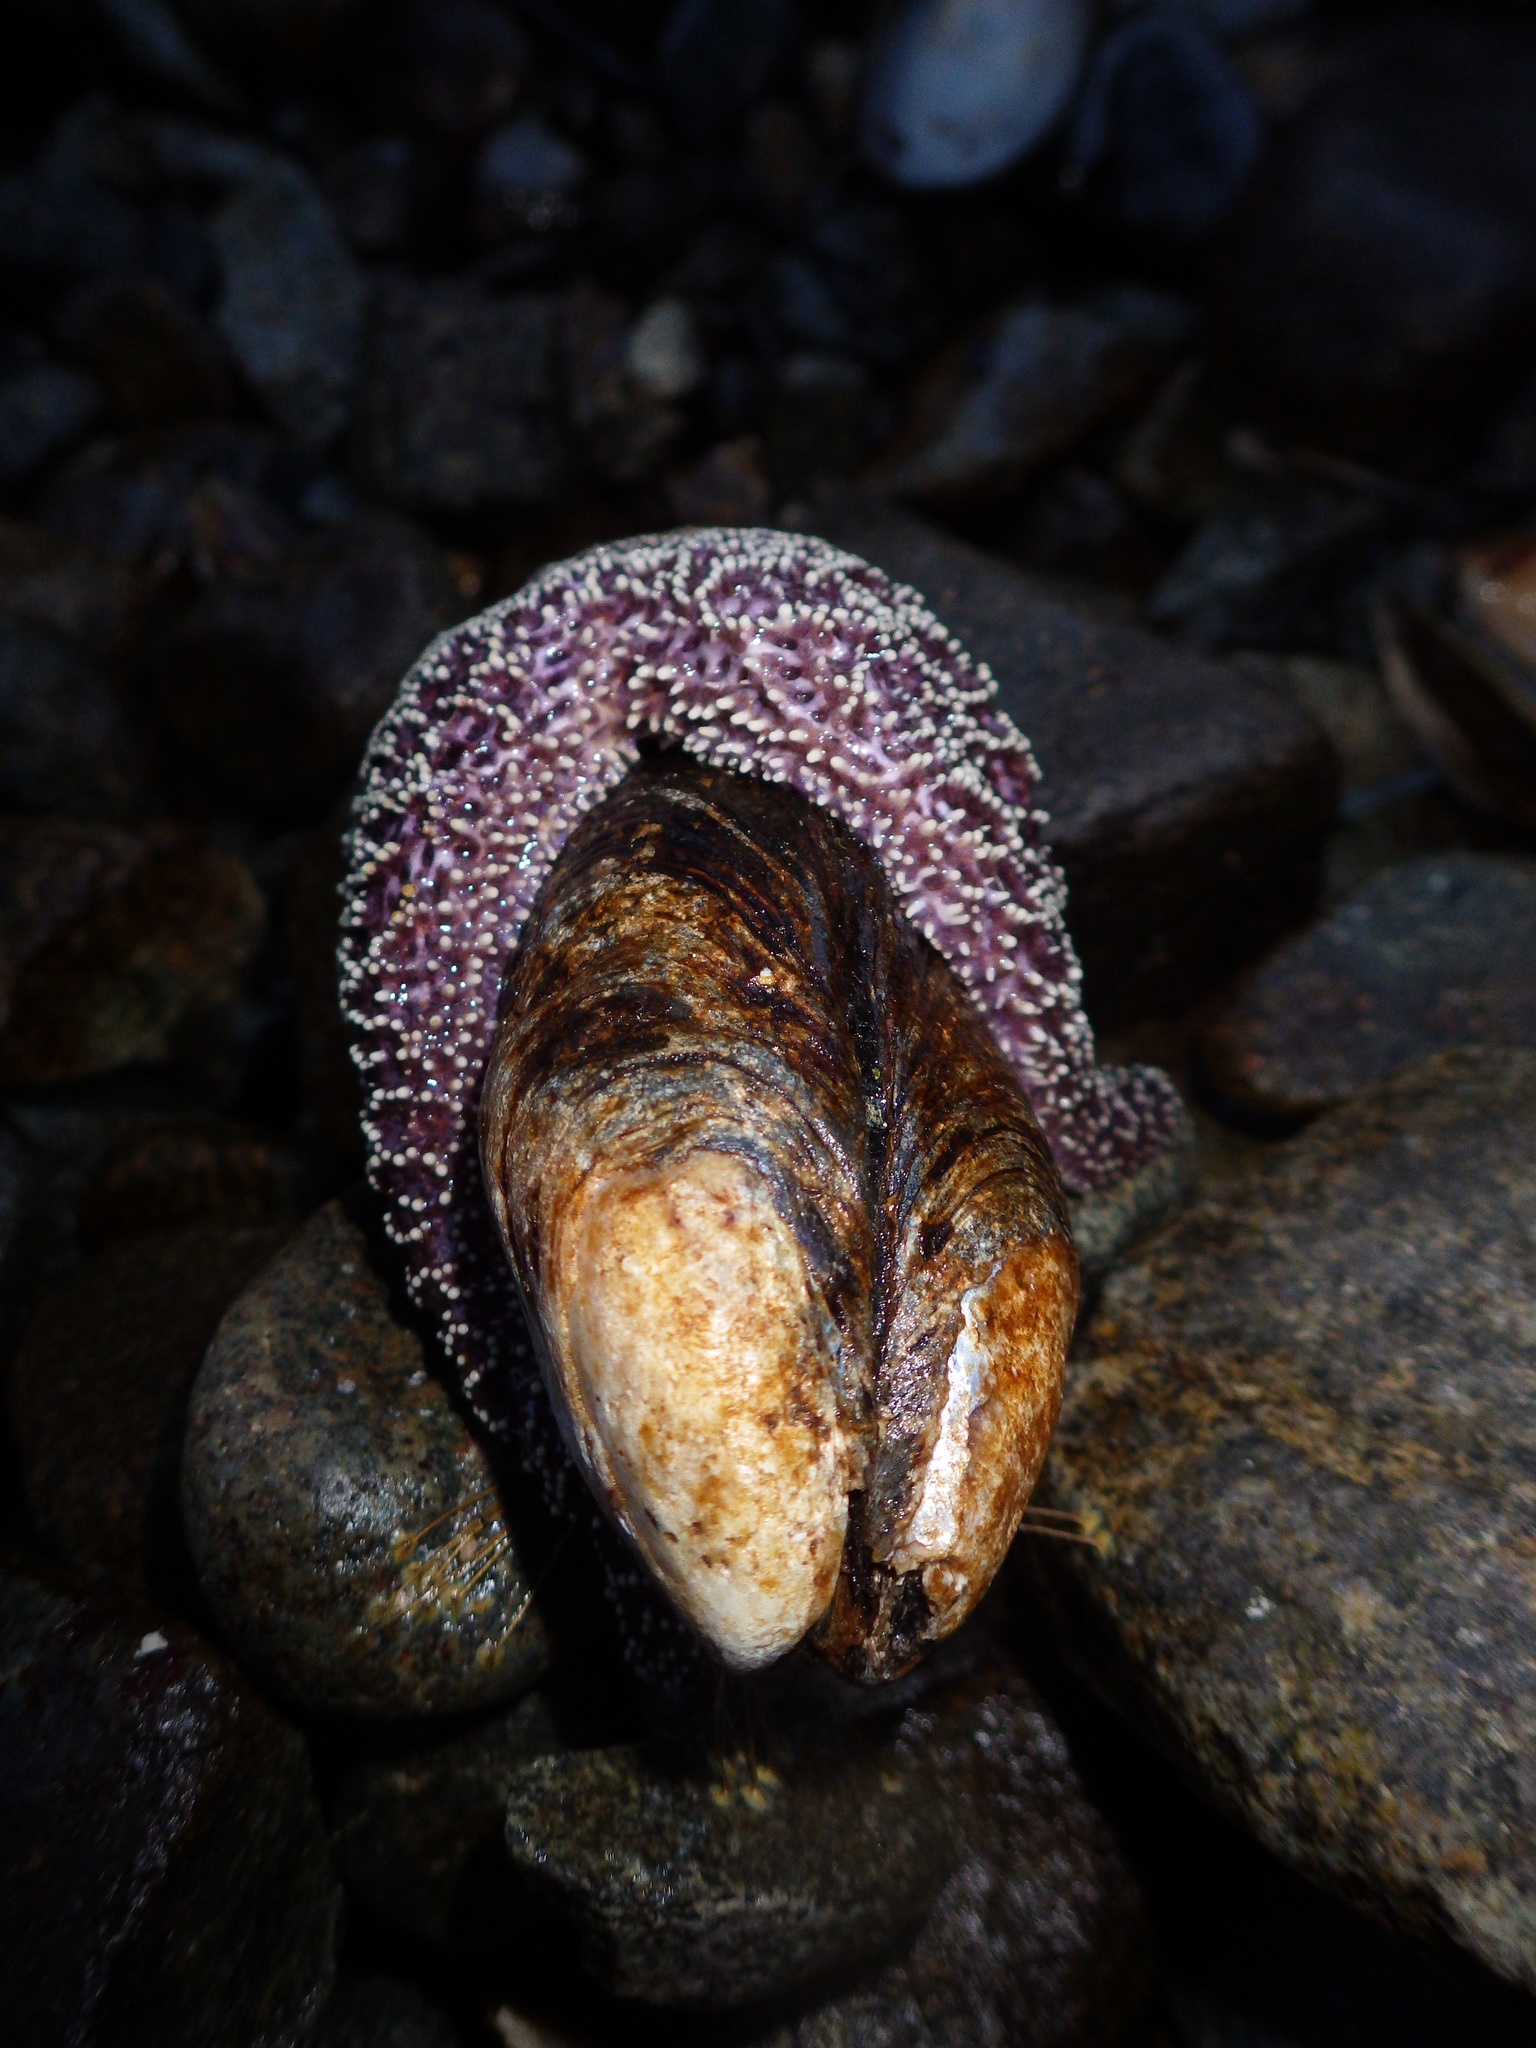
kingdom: Animalia
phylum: Echinodermata
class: Asteroidea
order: Forcipulatida
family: Asteriidae
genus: Pisaster
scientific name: Pisaster ochraceus
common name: Ochre stars
